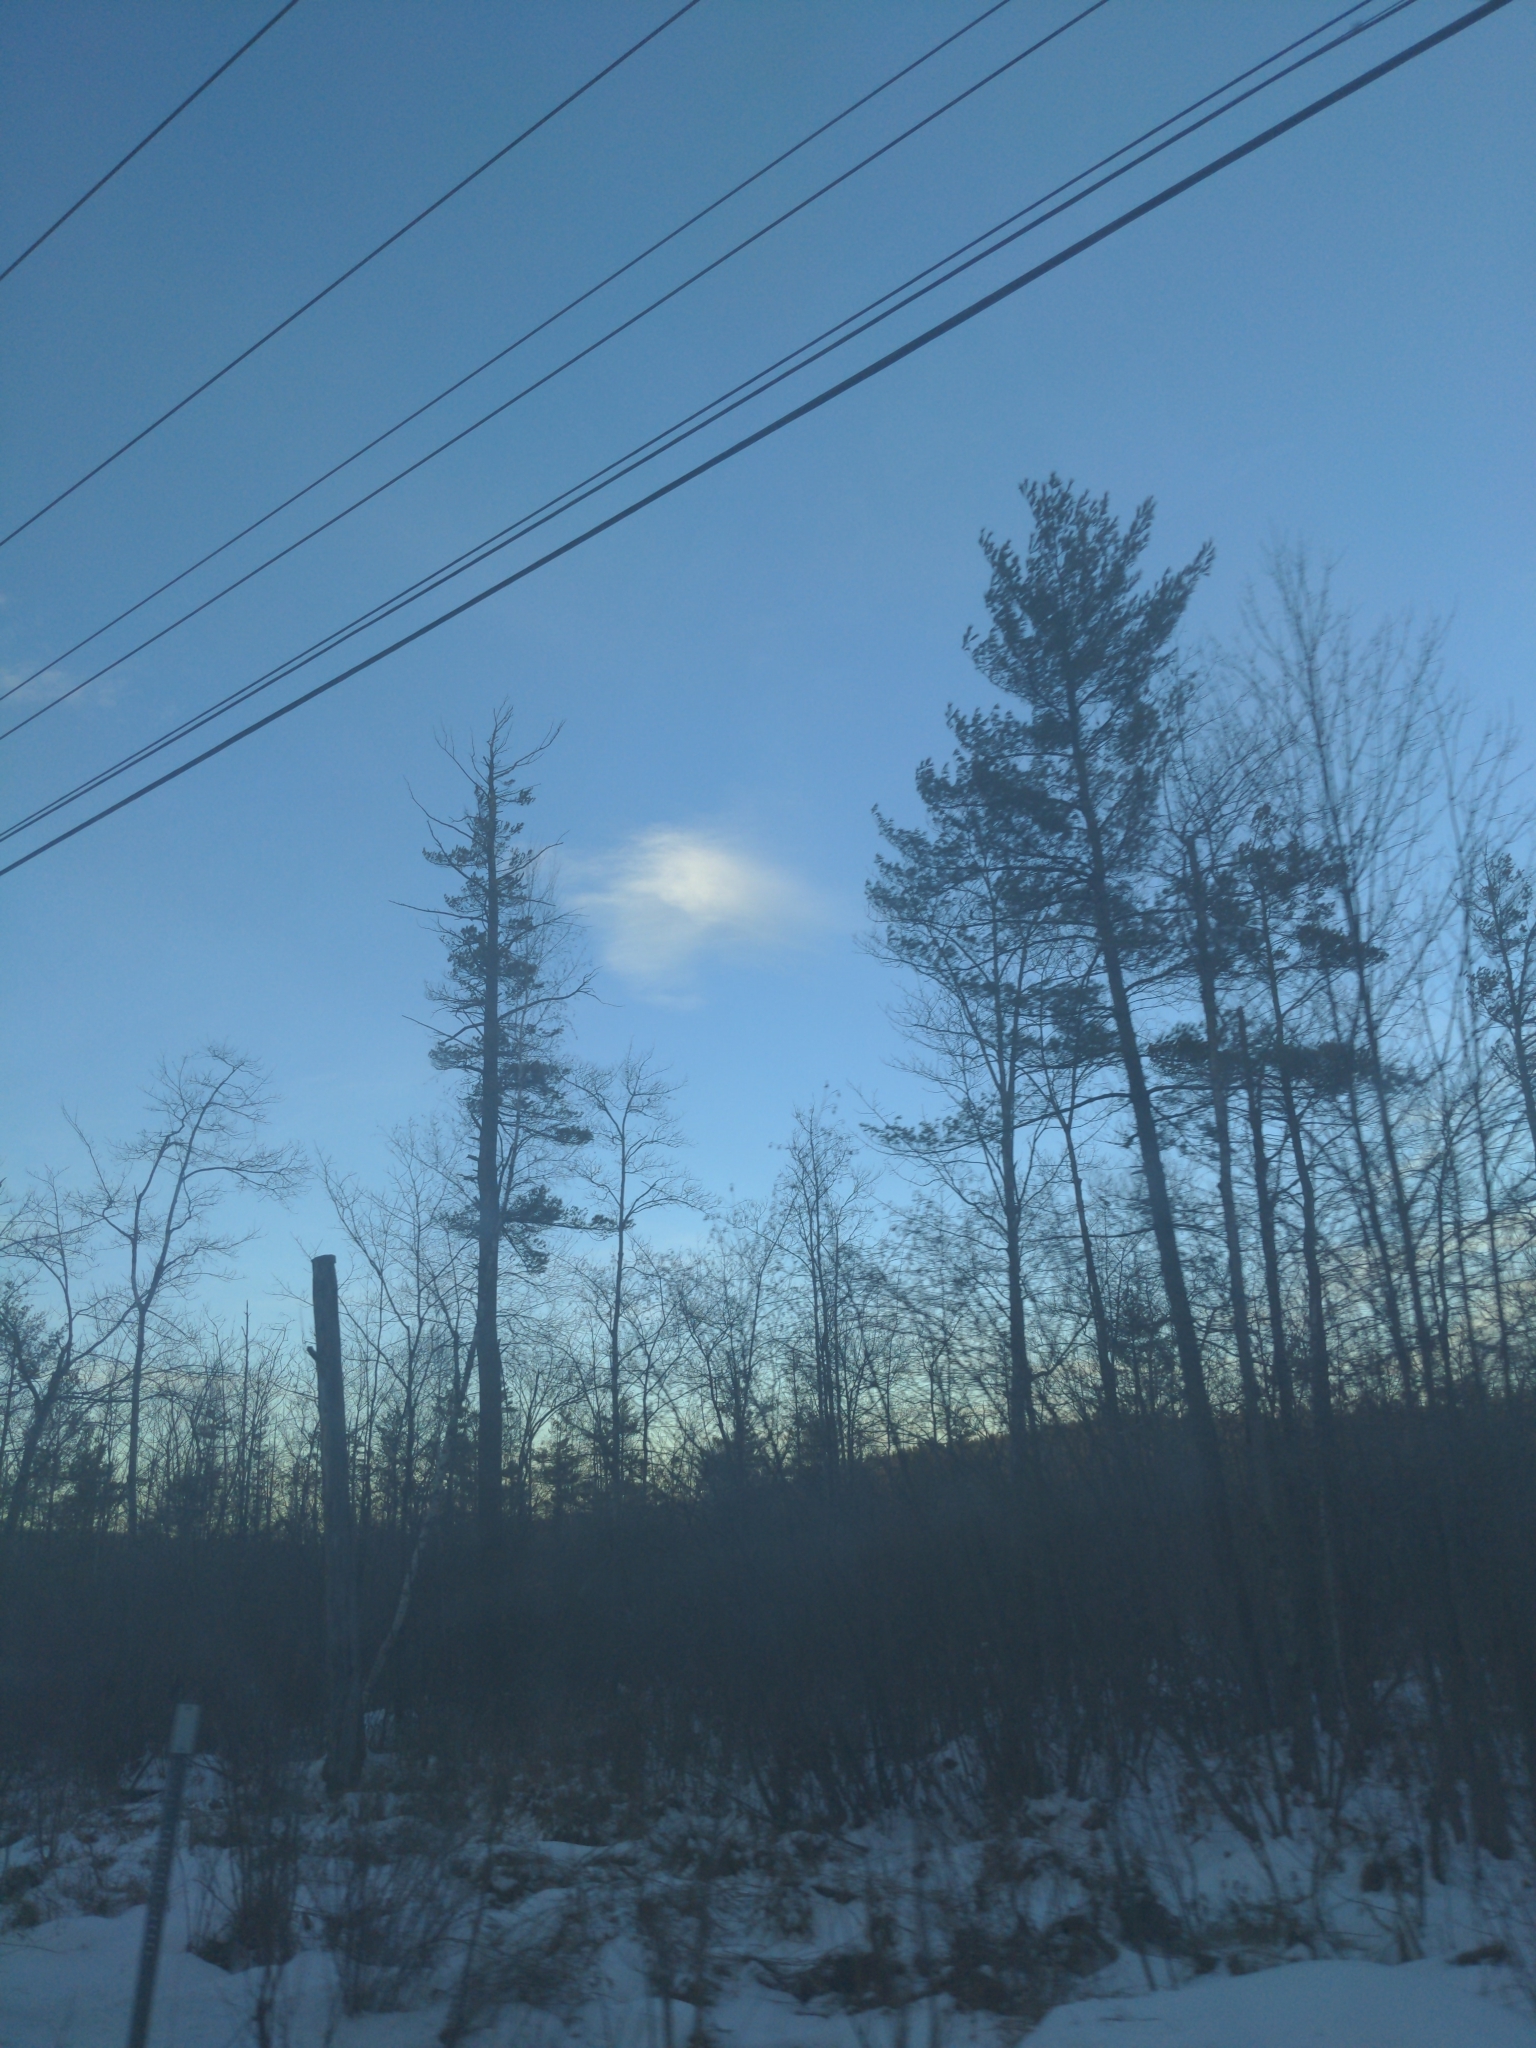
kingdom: Plantae
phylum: Tracheophyta
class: Pinopsida
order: Pinales
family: Pinaceae
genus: Pinus
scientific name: Pinus strobus
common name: Weymouth pine
